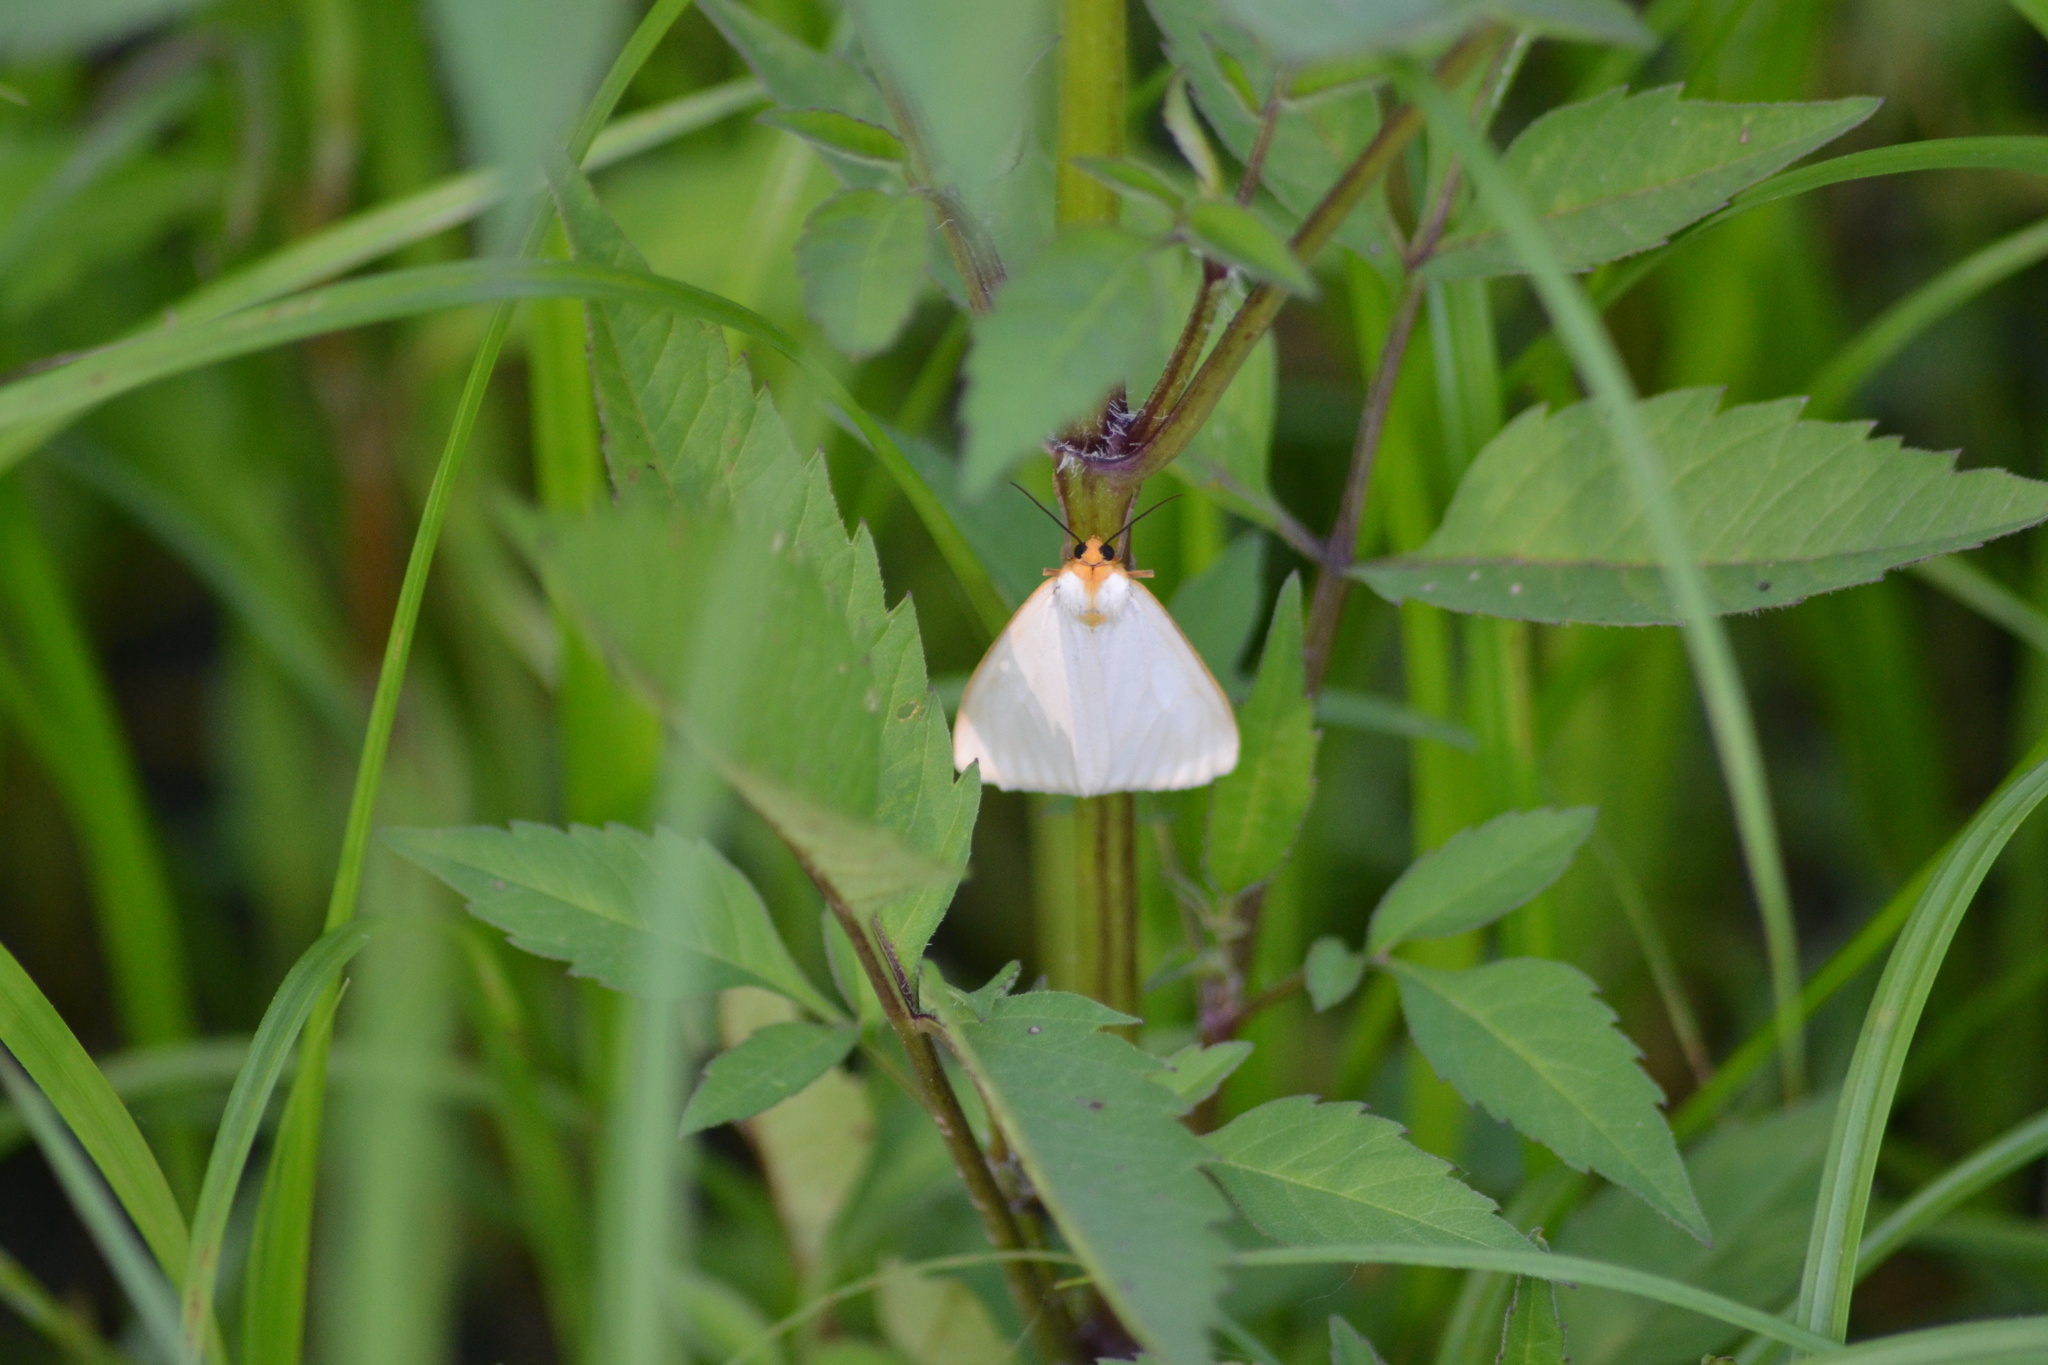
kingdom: Animalia
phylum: Arthropoda
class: Insecta
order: Lepidoptera
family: Erebidae
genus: Cycnia
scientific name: Cycnia tenera
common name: Delicate cycnia moth
